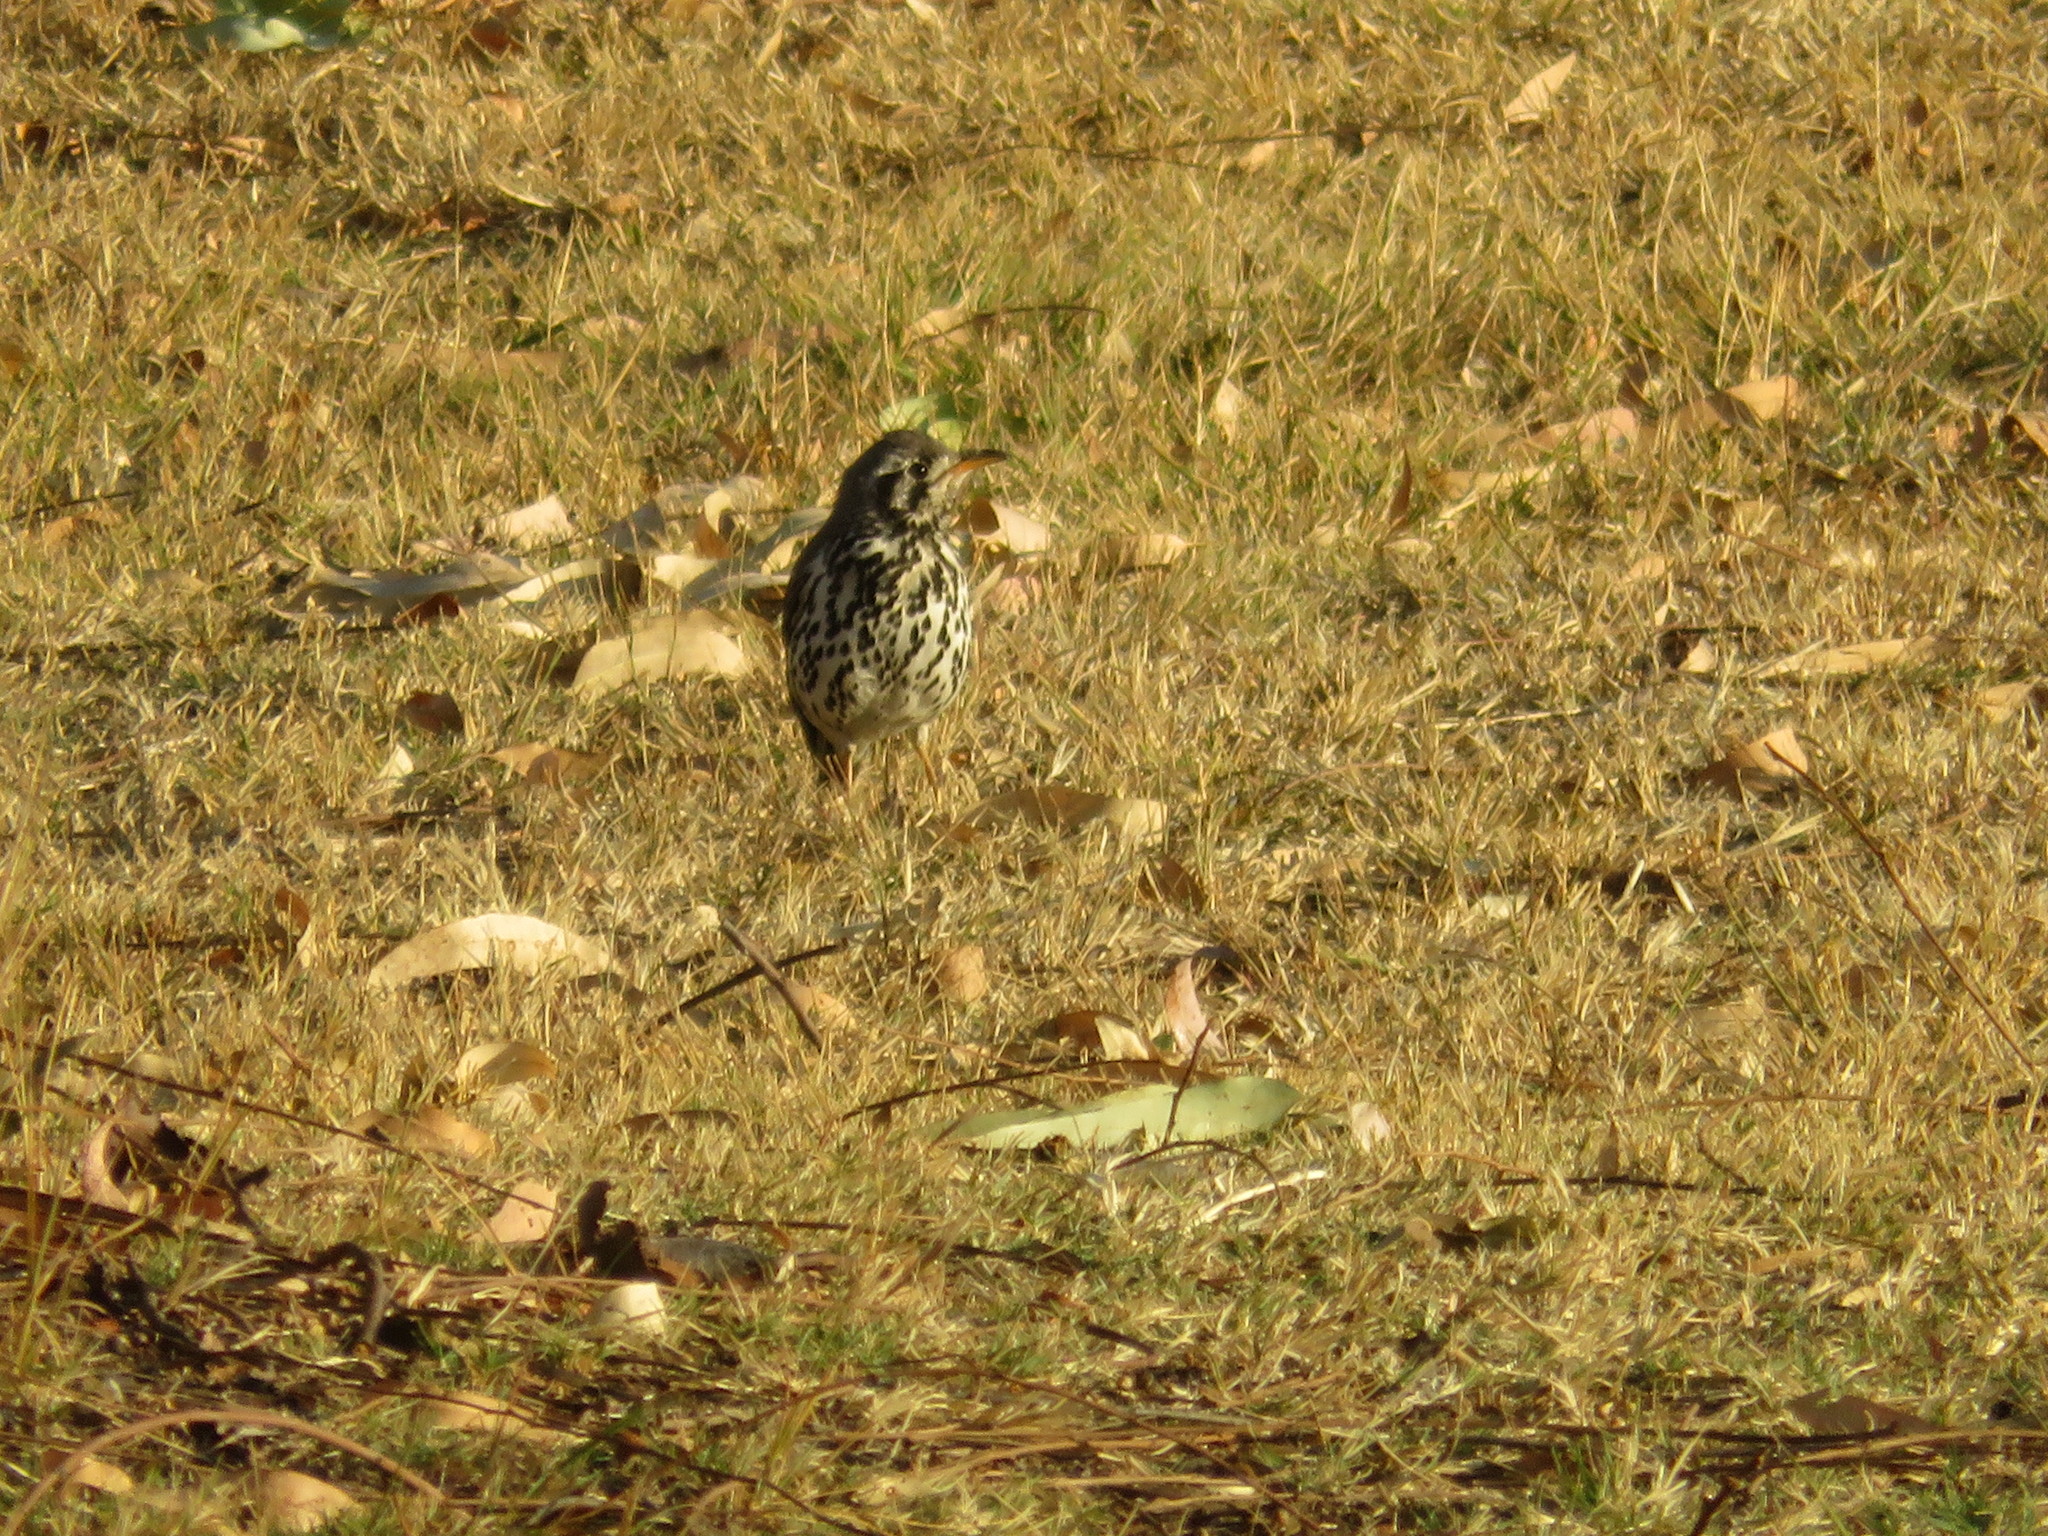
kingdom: Animalia
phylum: Chordata
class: Aves
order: Passeriformes
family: Turdidae
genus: Psophocichla
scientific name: Psophocichla litsitsirupa
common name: Groundscraper thrush
